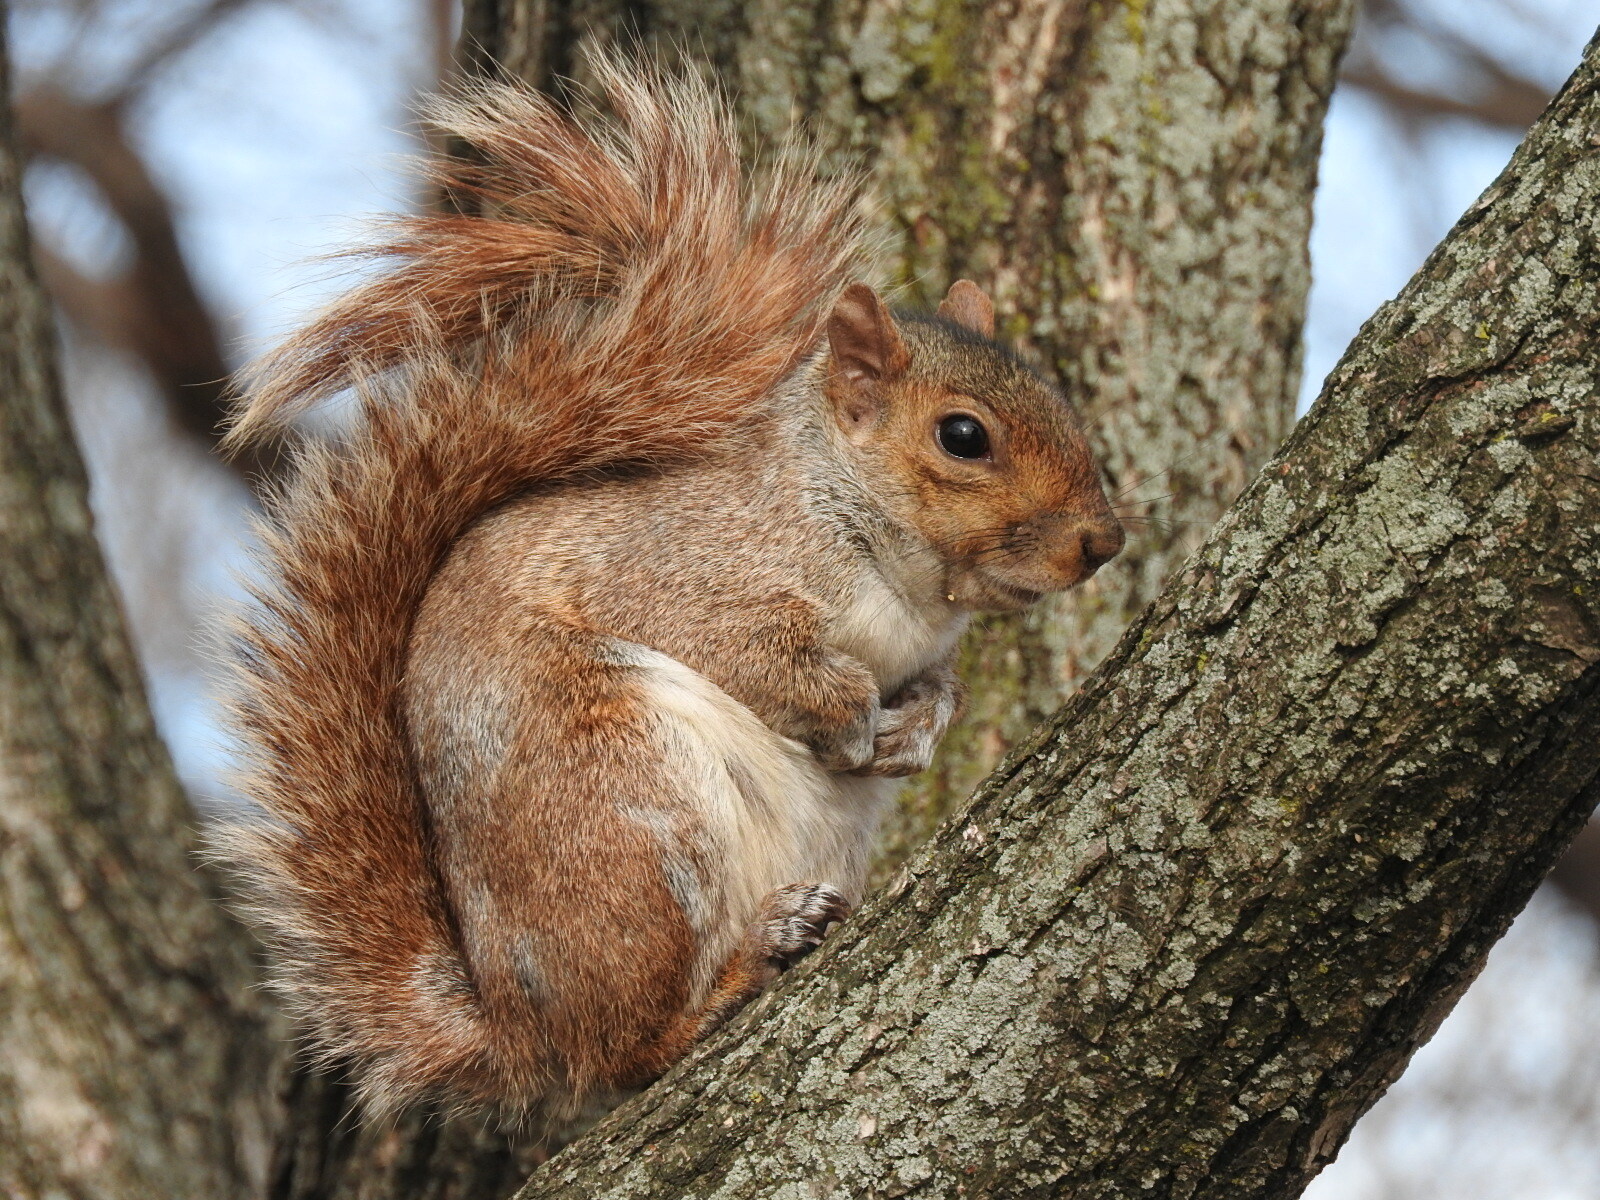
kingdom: Animalia
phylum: Chordata
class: Mammalia
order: Rodentia
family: Sciuridae
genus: Sciurus
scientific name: Sciurus carolinensis
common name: Eastern gray squirrel
